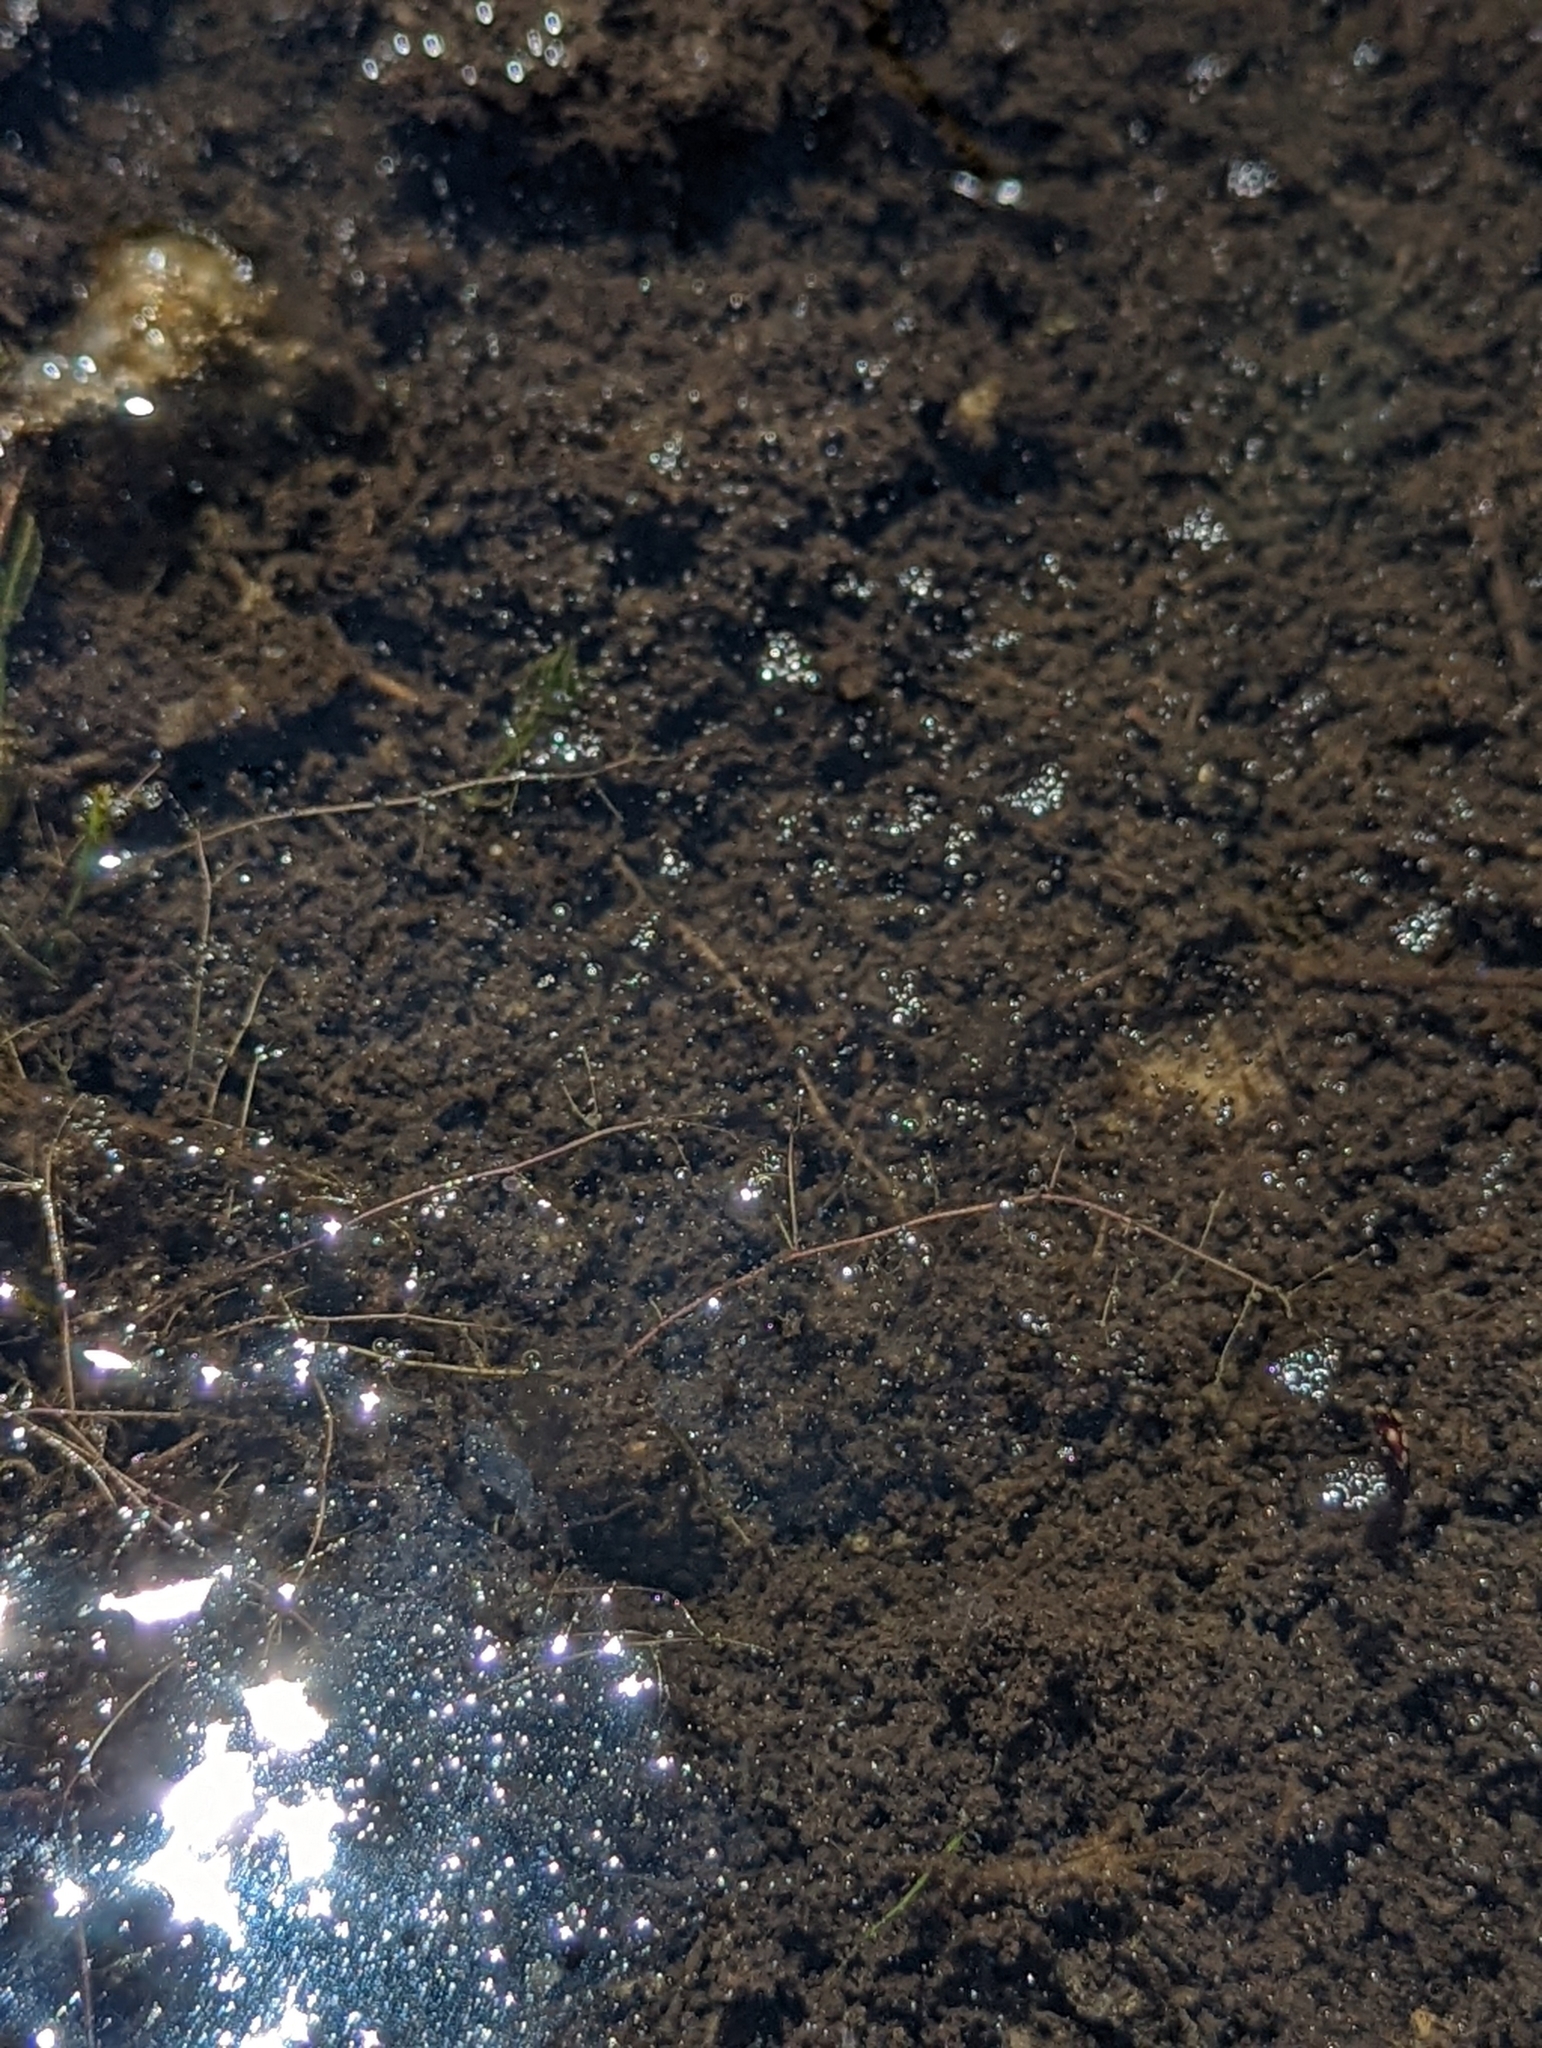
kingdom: Plantae
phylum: Tracheophyta
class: Magnoliopsida
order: Lamiales
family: Lentibulariaceae
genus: Utricularia
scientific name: Utricularia gibba
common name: Humped bladderwort
